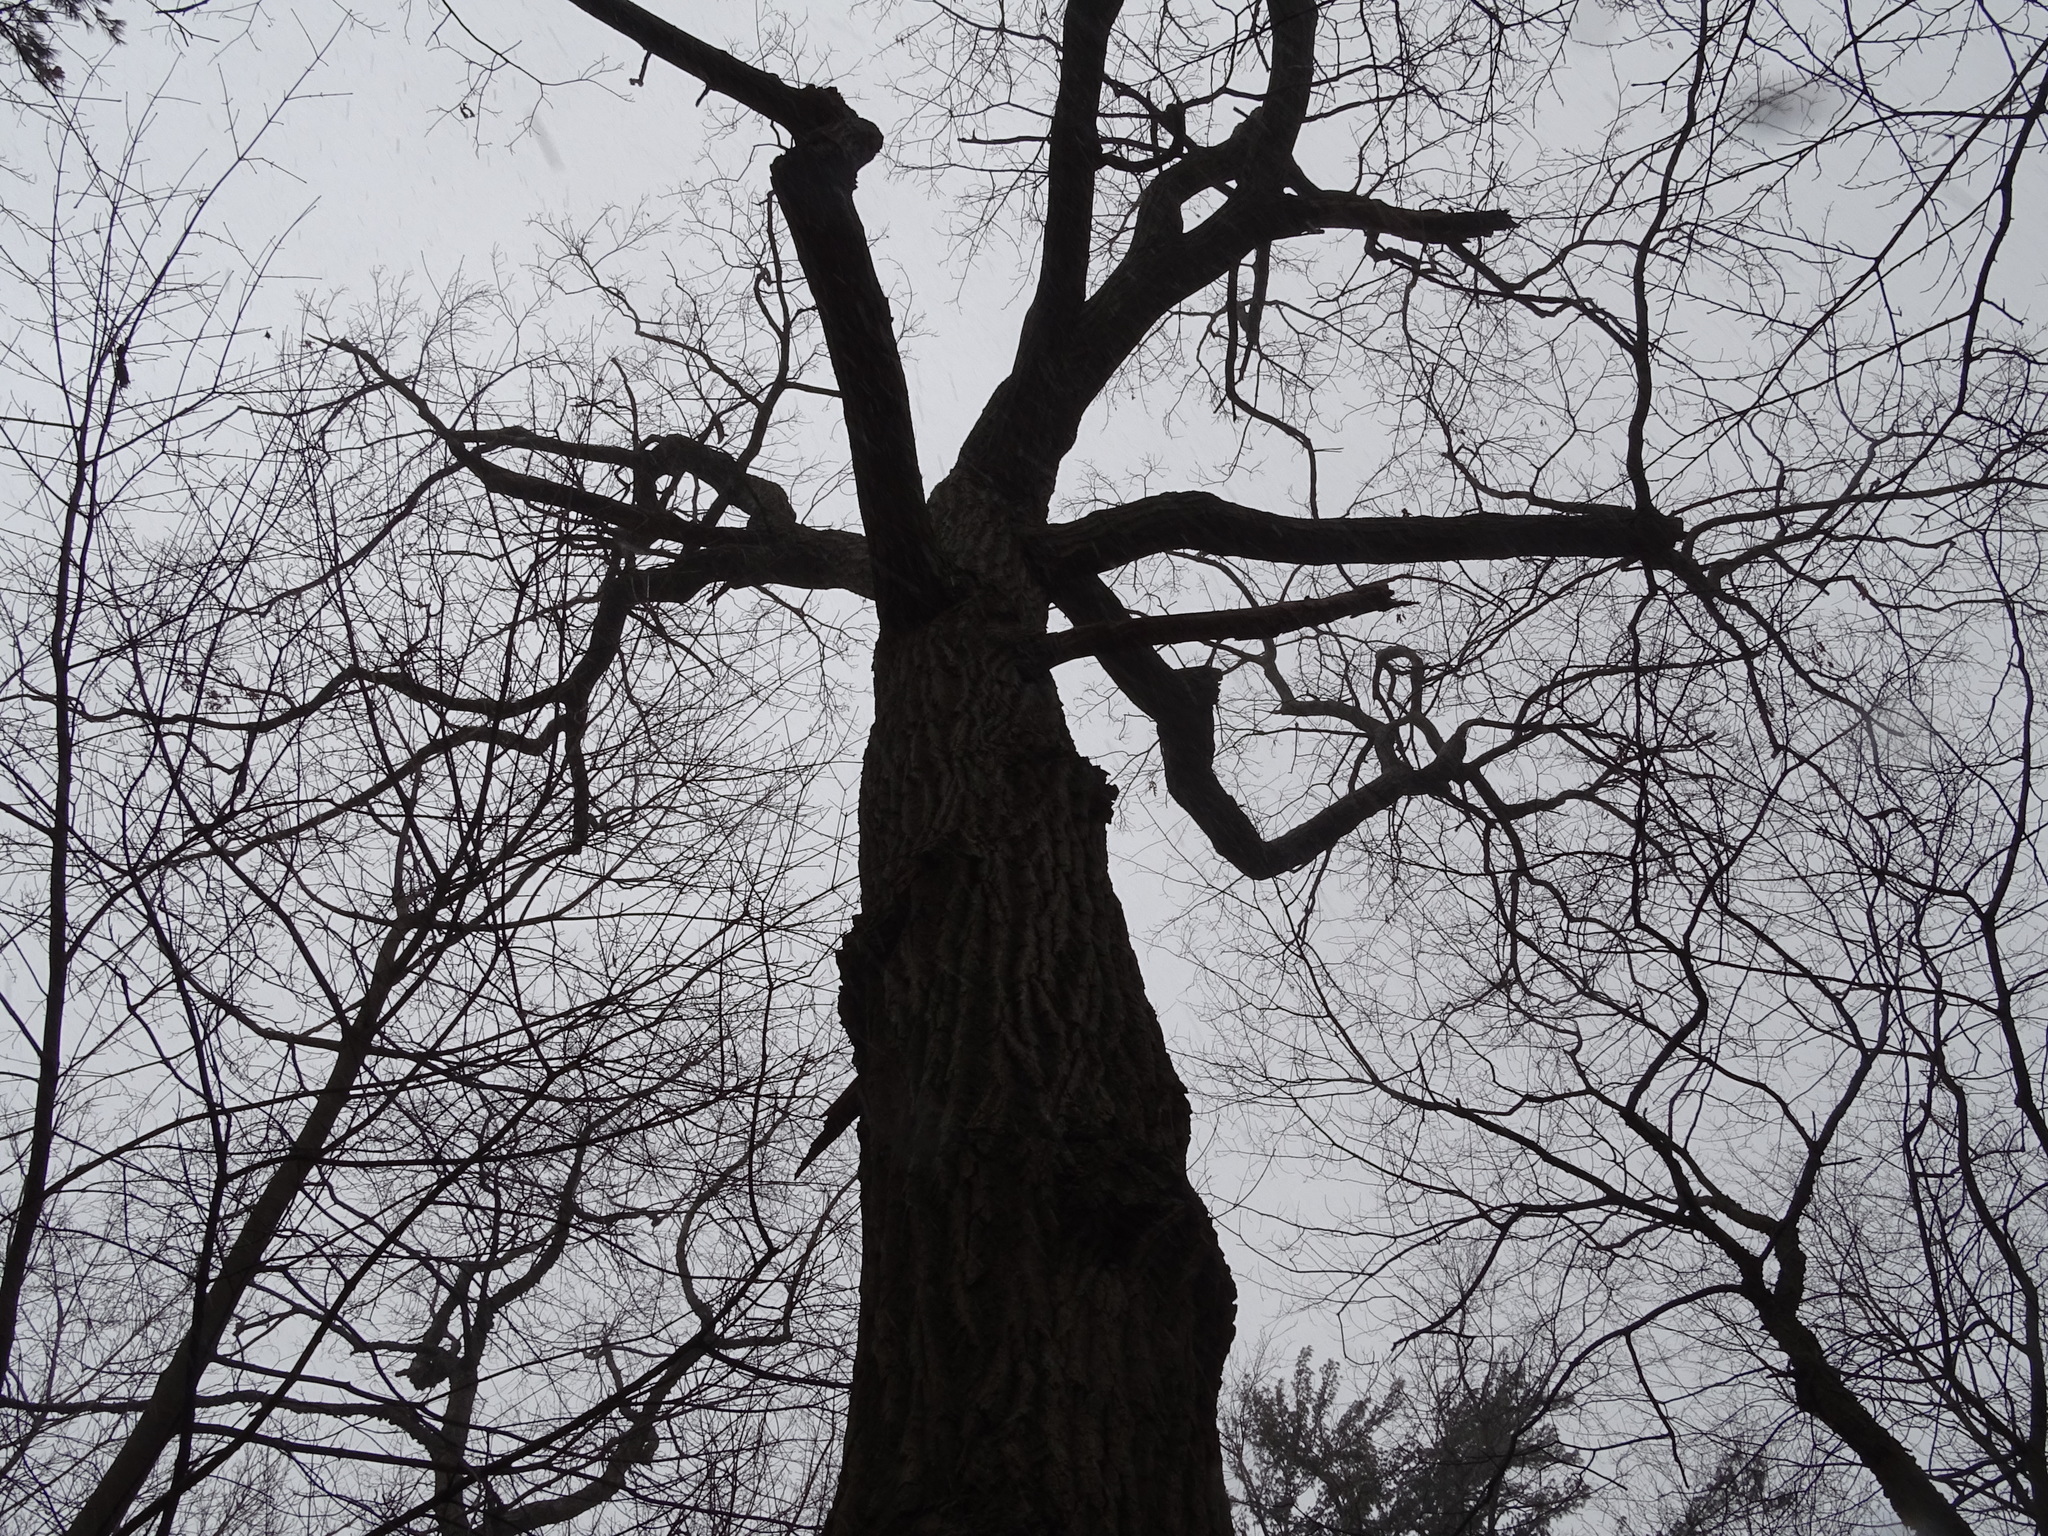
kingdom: Plantae
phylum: Tracheophyta
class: Magnoliopsida
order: Fagales
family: Fagaceae
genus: Quercus
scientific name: Quercus rubra
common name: Red oak
